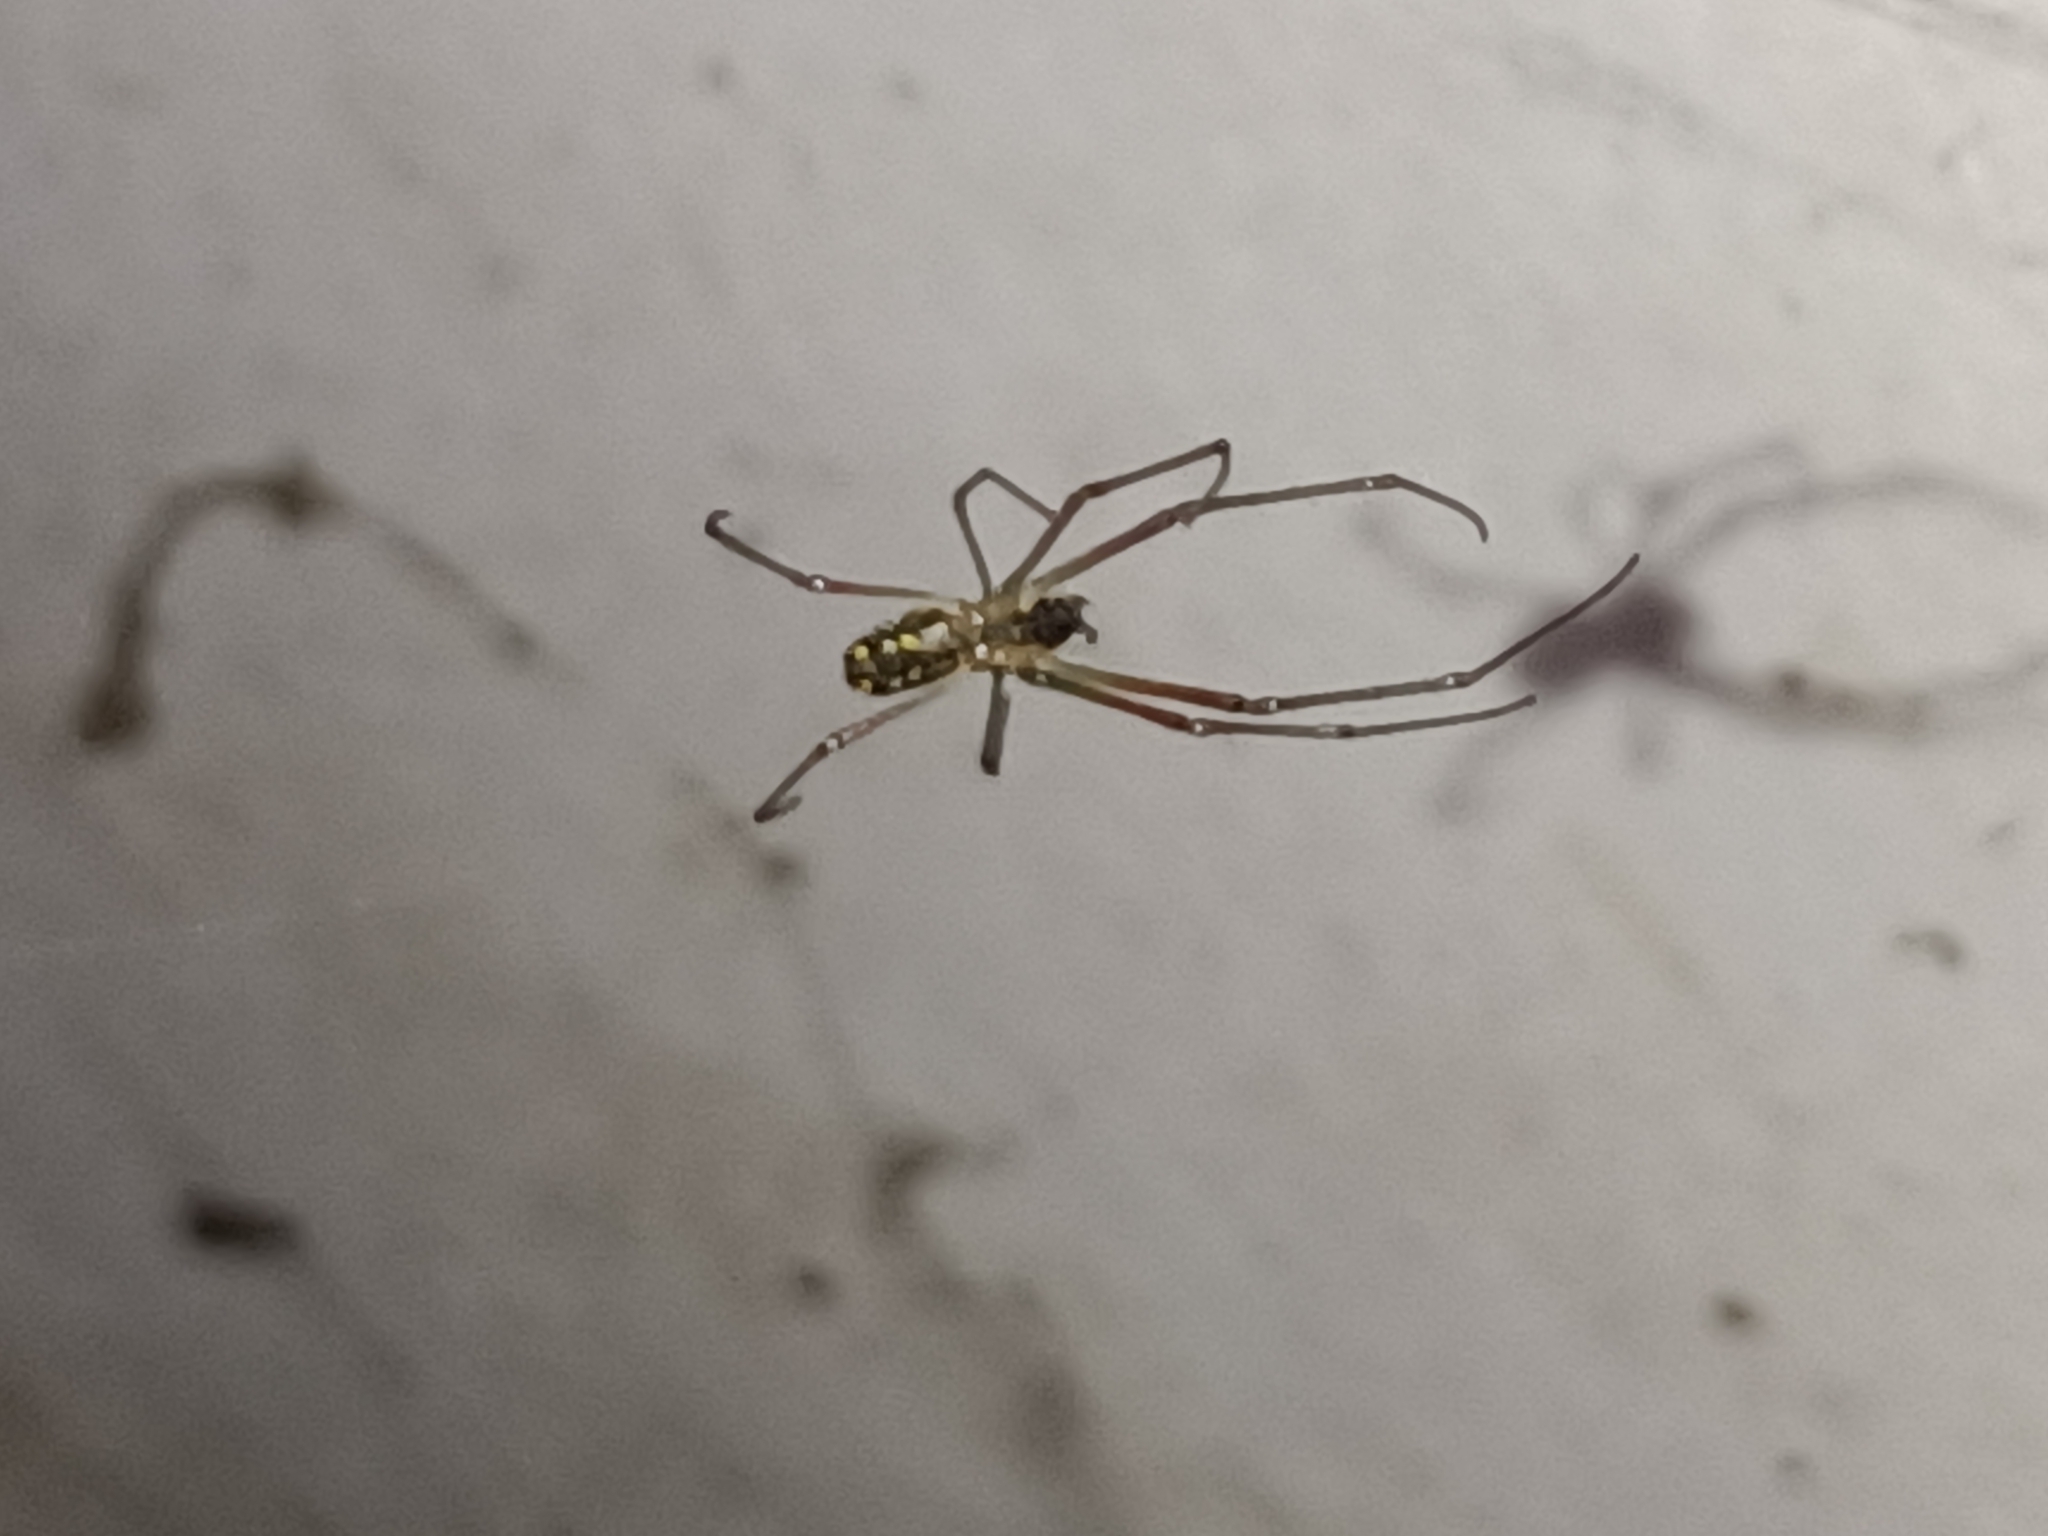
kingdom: Animalia
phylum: Arthropoda
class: Arachnida
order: Araneae
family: Tetragnathidae
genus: Leucauge
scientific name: Leucauge argyra
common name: Longjawed orb weavers
